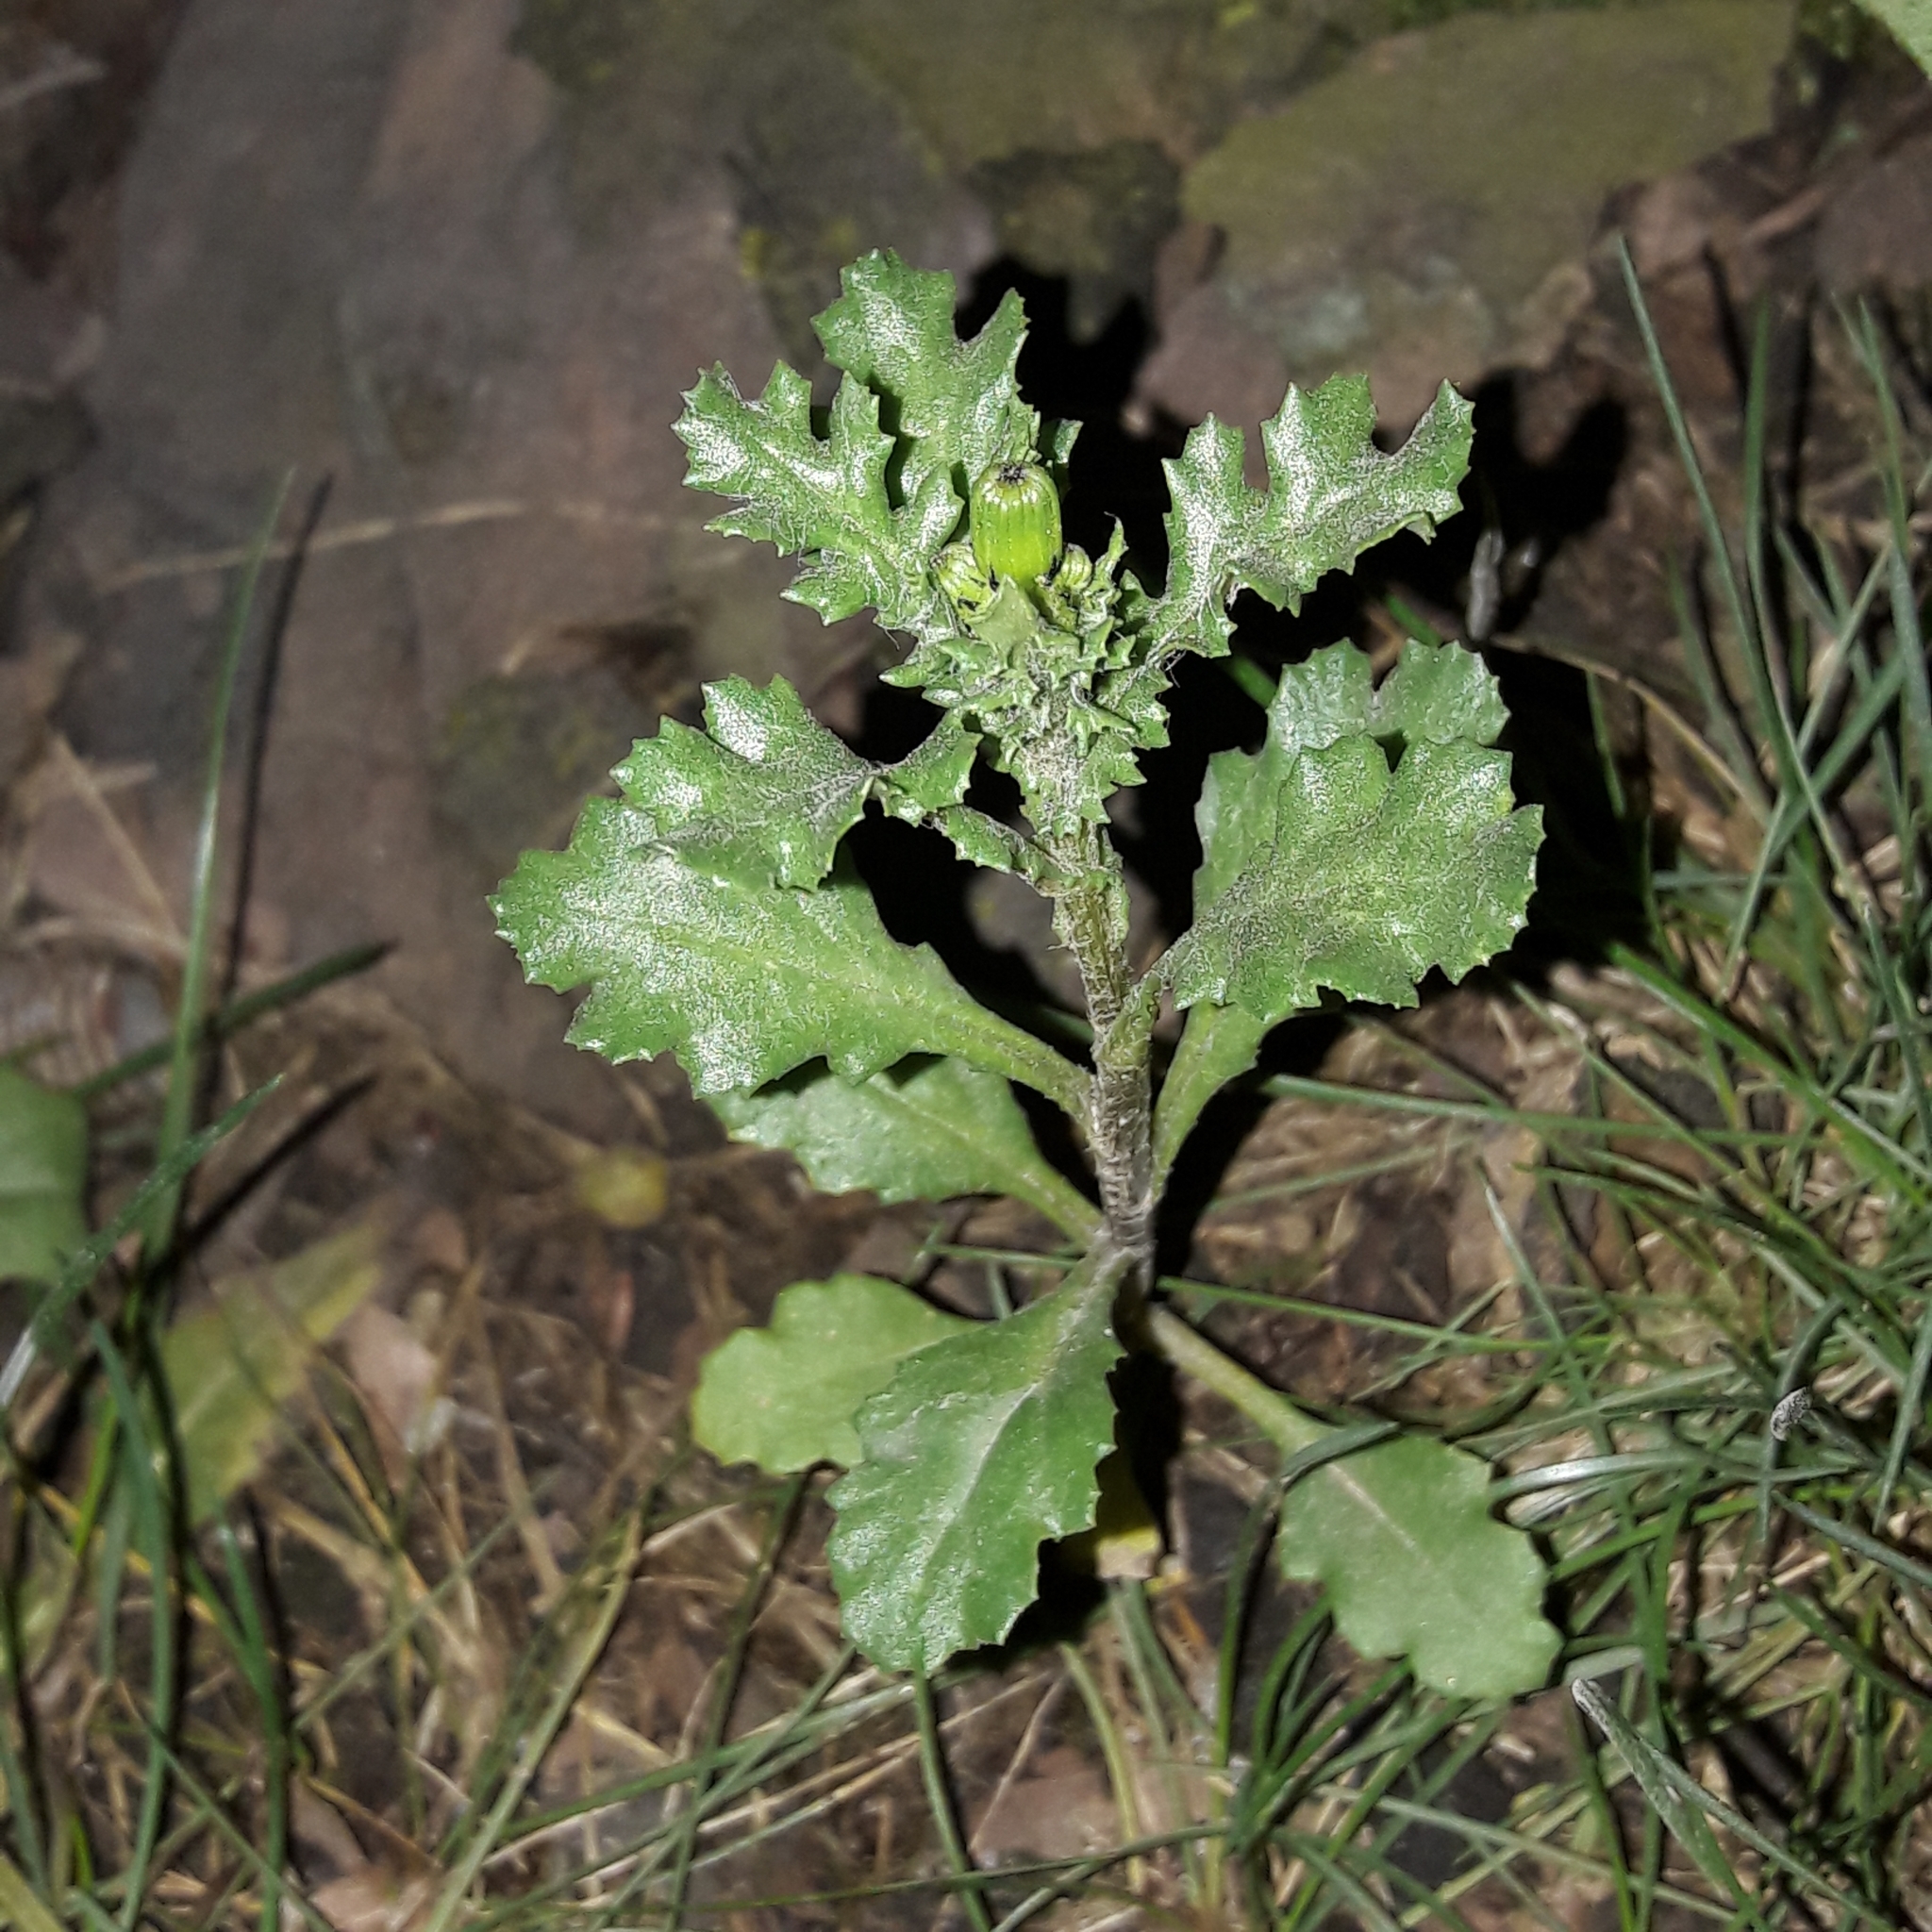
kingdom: Plantae
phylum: Tracheophyta
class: Magnoliopsida
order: Asterales
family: Asteraceae
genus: Senecio
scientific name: Senecio vulgaris
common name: Old-man-in-the-spring
